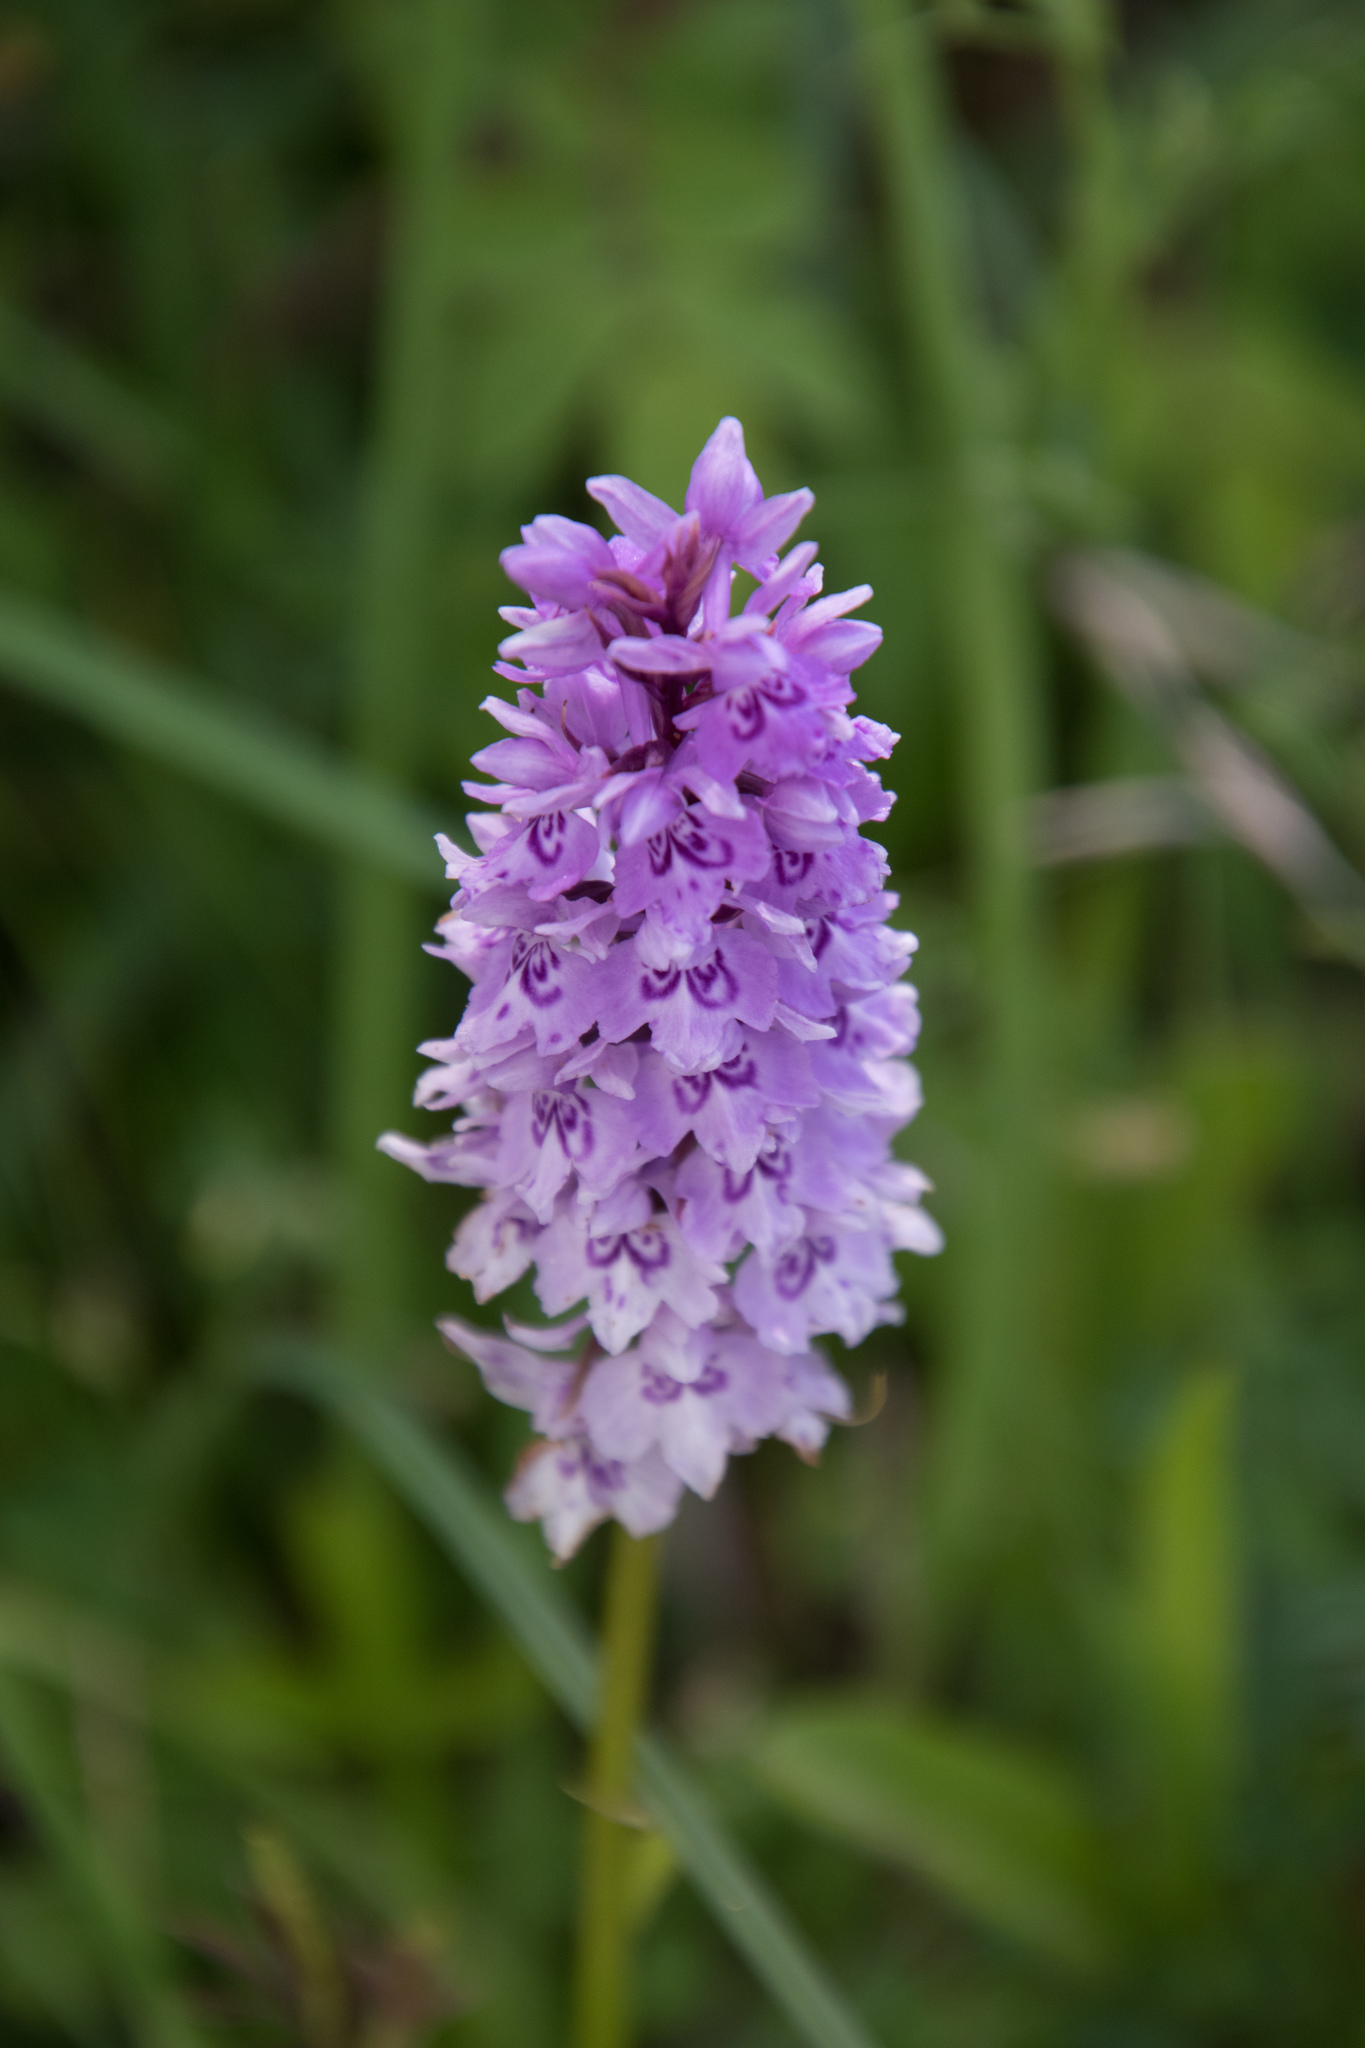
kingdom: Plantae
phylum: Tracheophyta
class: Liliopsida
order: Asparagales
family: Orchidaceae
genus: Dactylorhiza
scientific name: Dactylorhiza maculata
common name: Heath spotted-orchid
